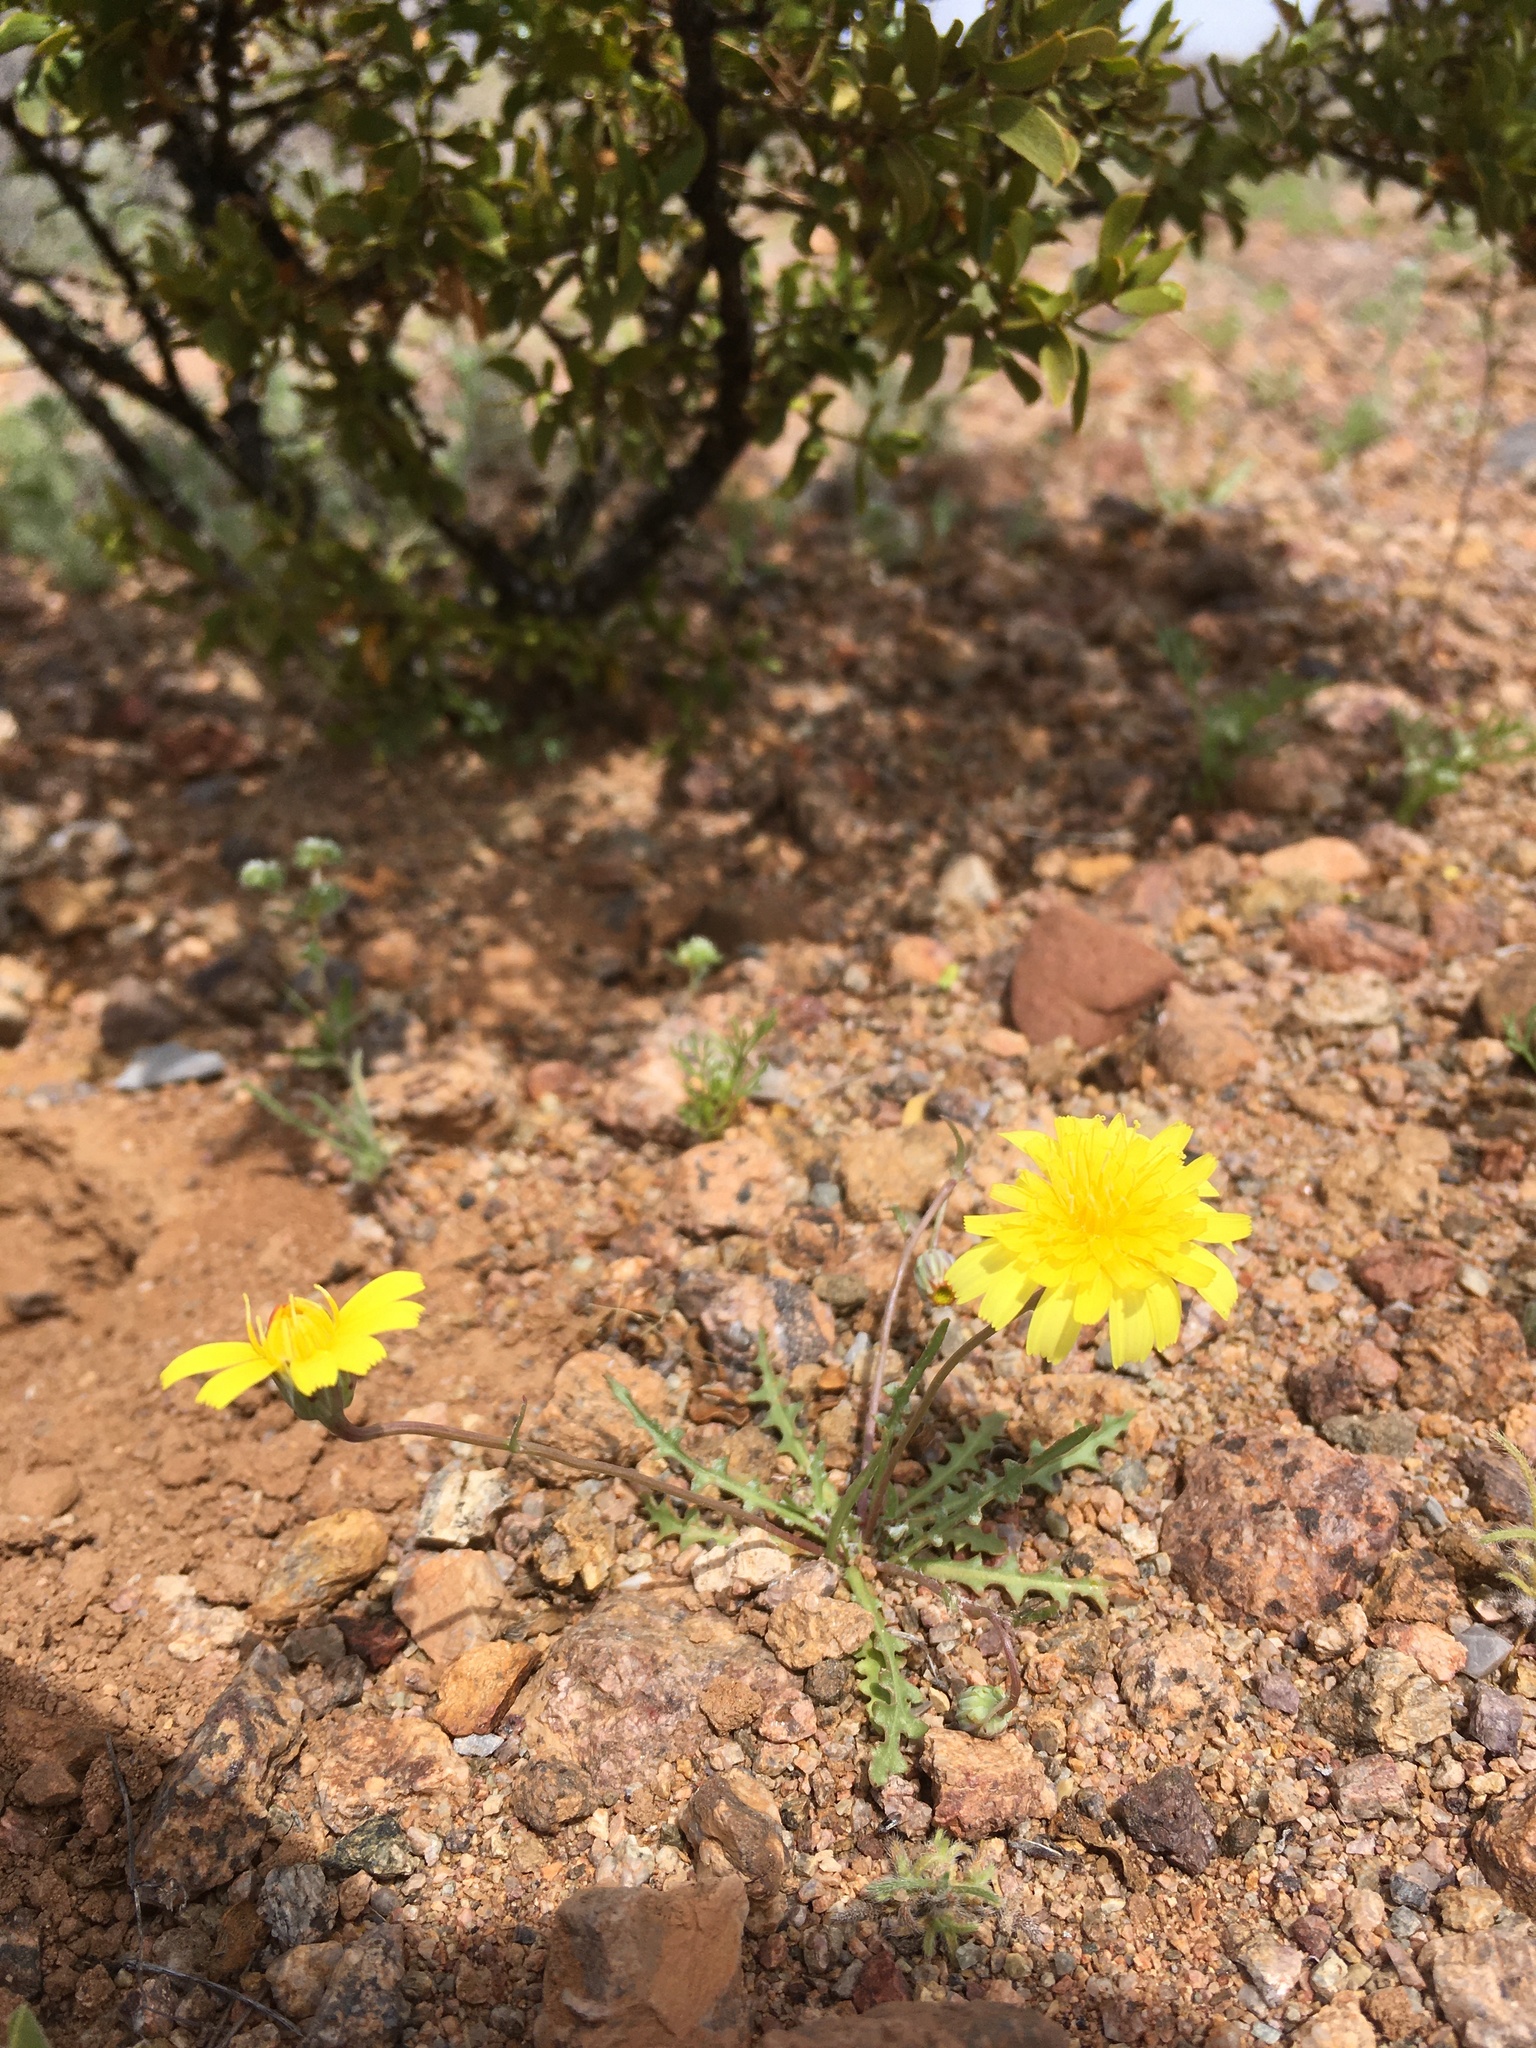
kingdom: Plantae
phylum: Tracheophyta
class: Magnoliopsida
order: Asterales
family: Asteraceae
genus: Malacothrix
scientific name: Malacothrix fendleri
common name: Fendler's desert-dandelion
